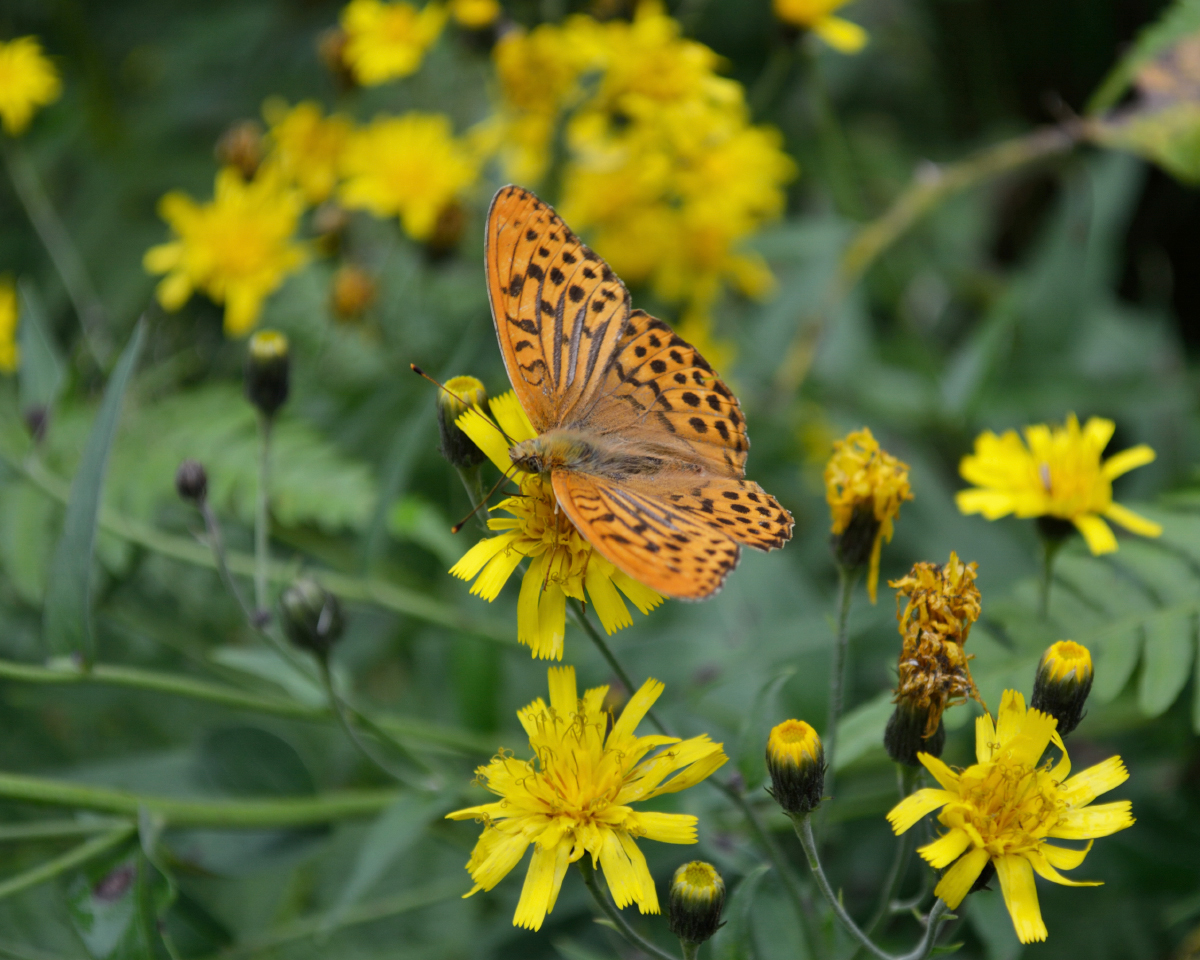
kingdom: Animalia
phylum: Arthropoda
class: Insecta
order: Lepidoptera
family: Nymphalidae
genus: Argynnis
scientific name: Argynnis paphia
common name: Silver-washed fritillary
